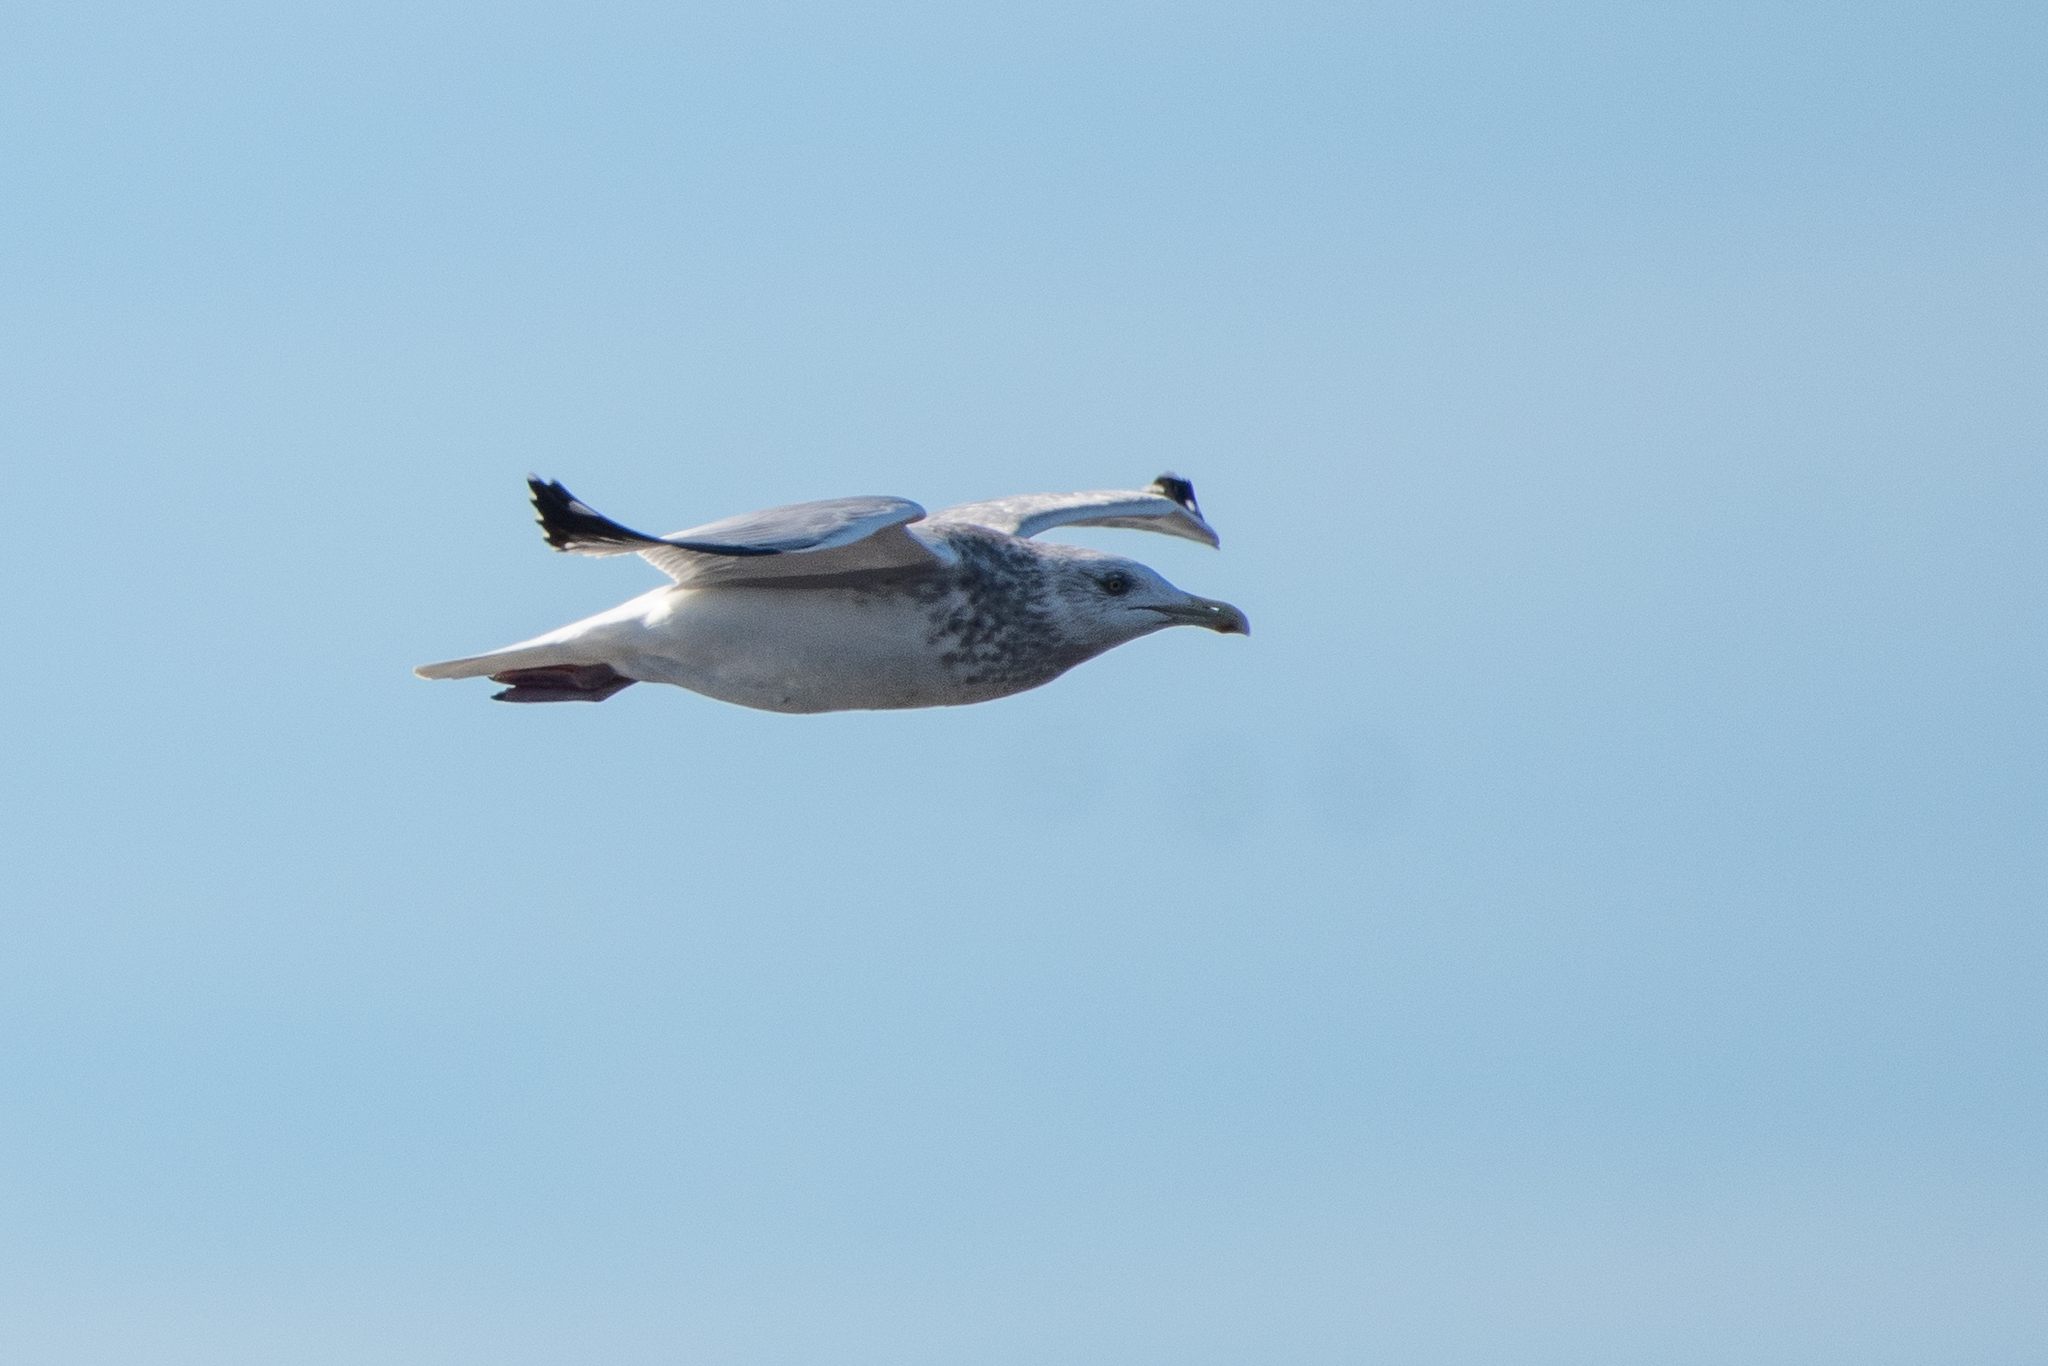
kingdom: Animalia
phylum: Chordata
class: Aves
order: Charadriiformes
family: Laridae
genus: Larus
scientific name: Larus argentatus
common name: Herring gull
